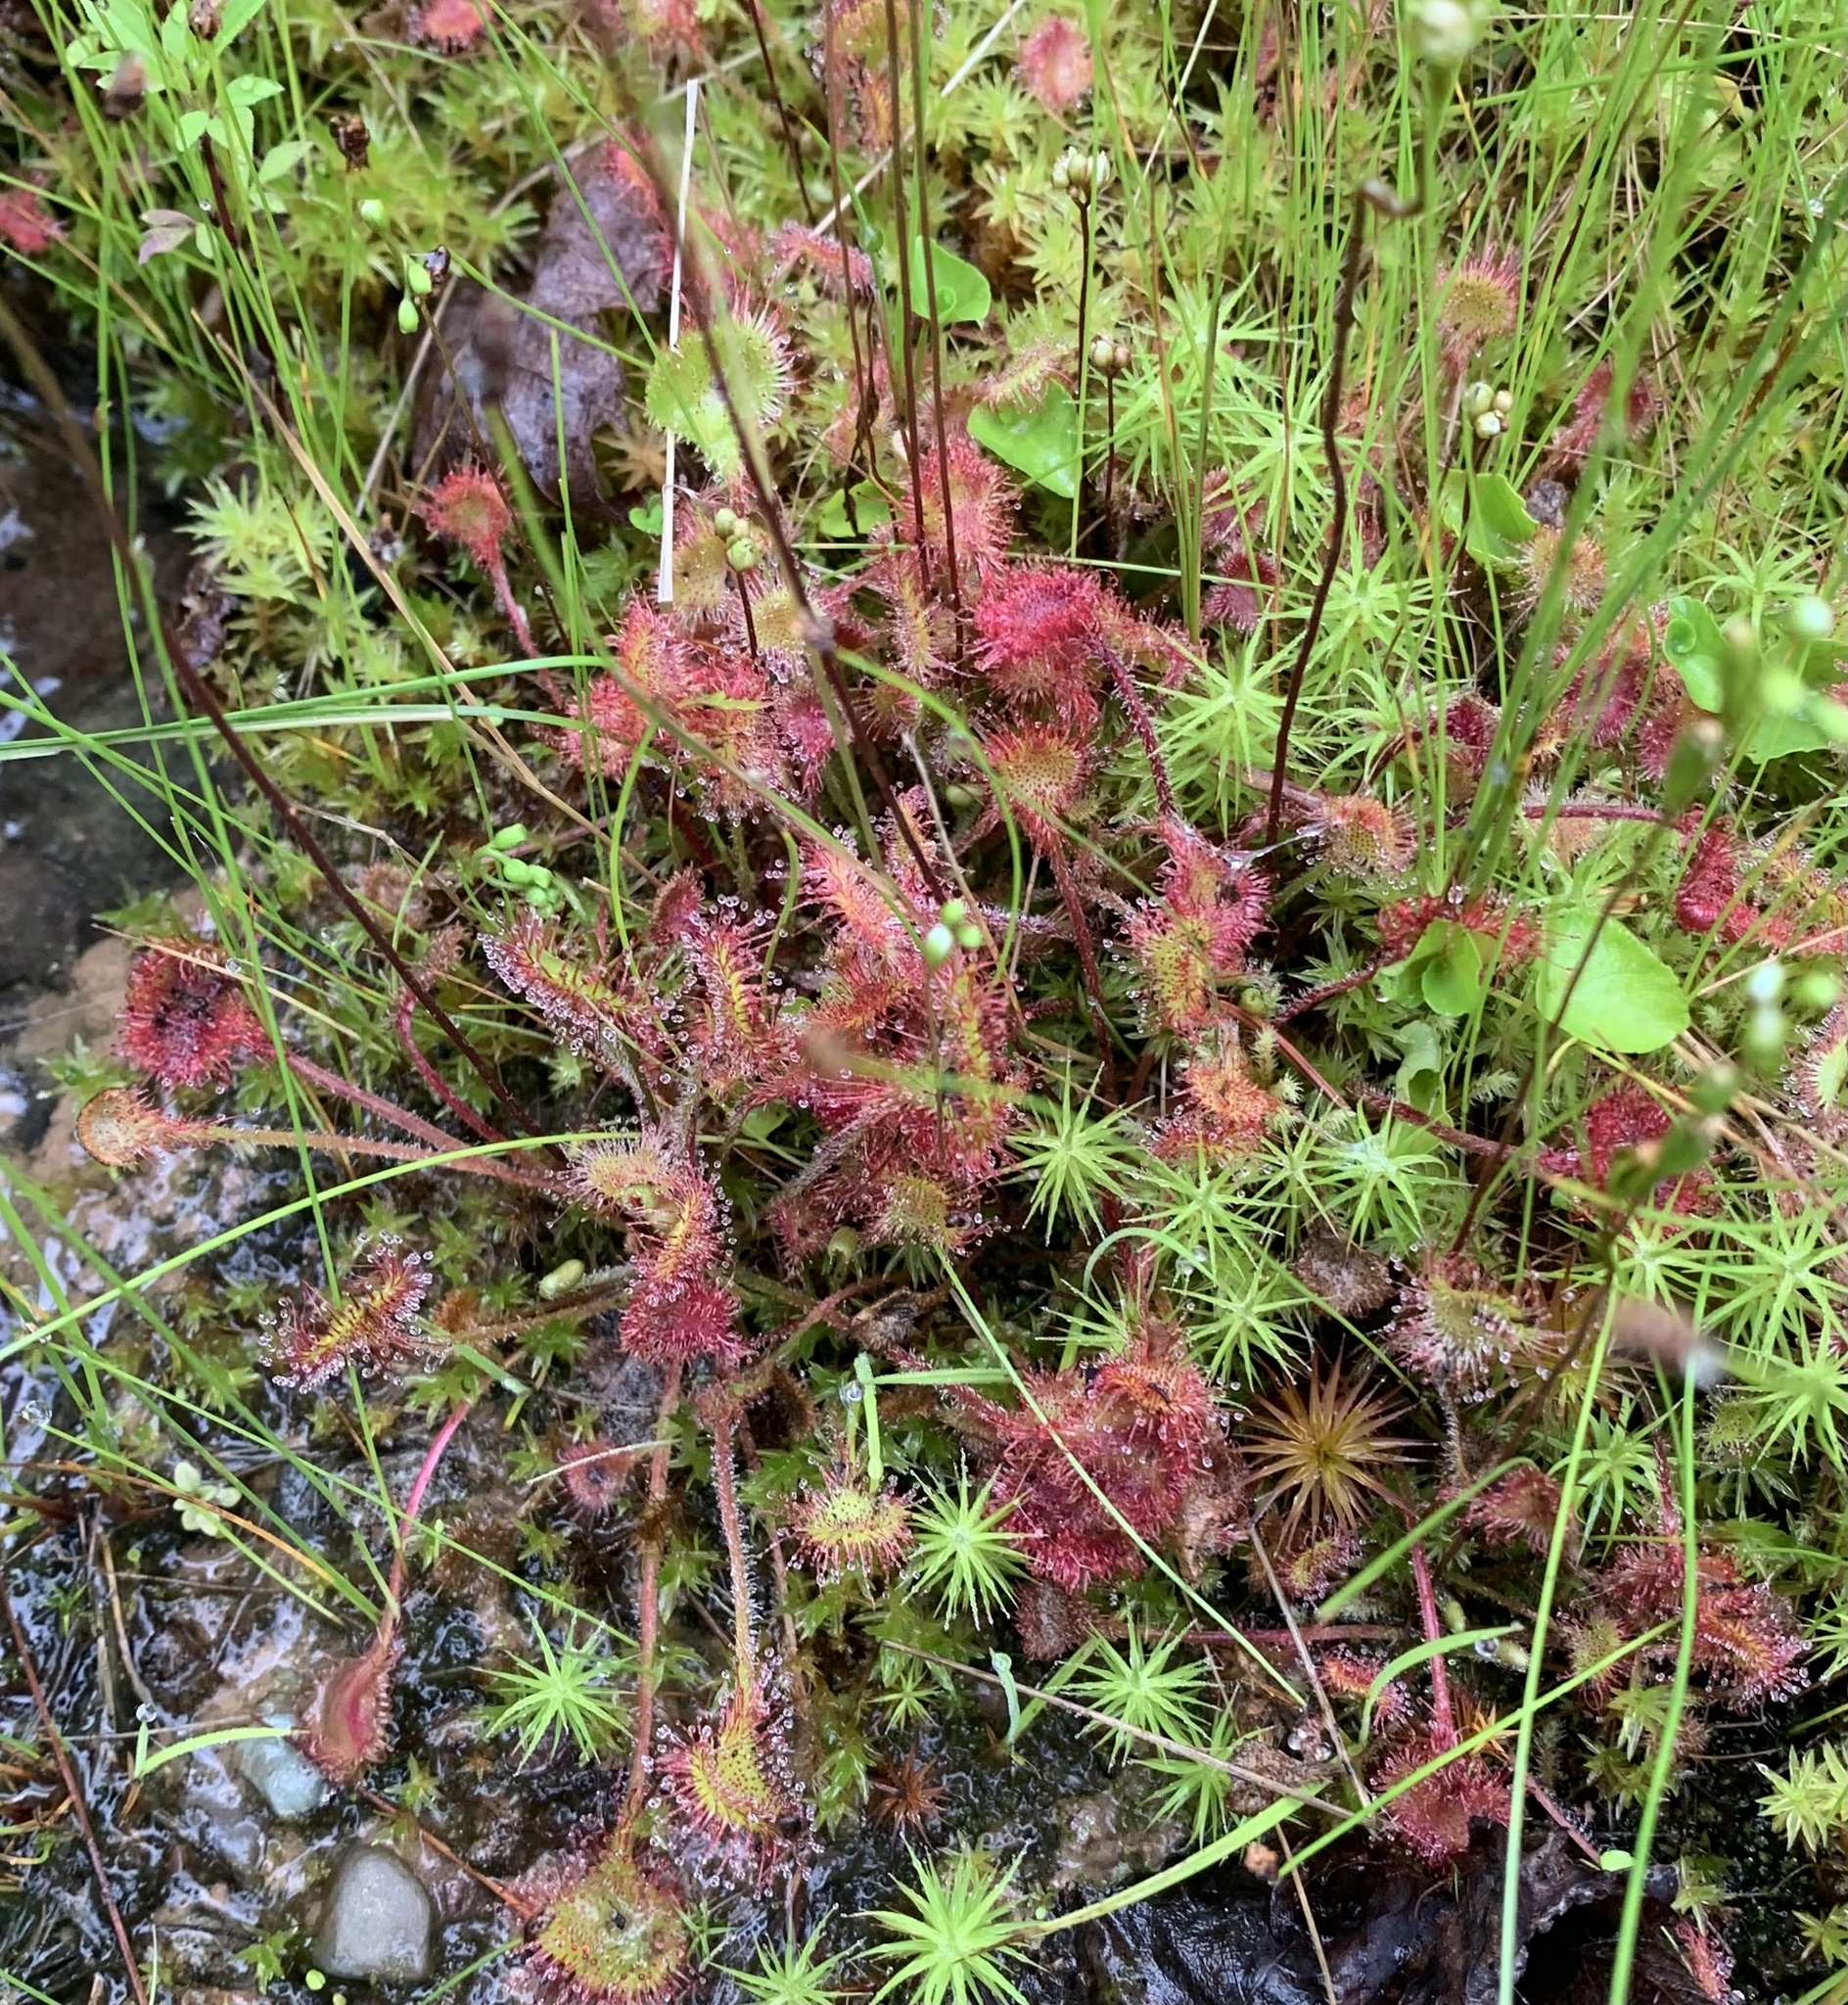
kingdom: Plantae
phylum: Tracheophyta
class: Magnoliopsida
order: Caryophyllales
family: Droseraceae
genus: Drosera
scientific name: Drosera rotundifolia
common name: Round-leaved sundew
